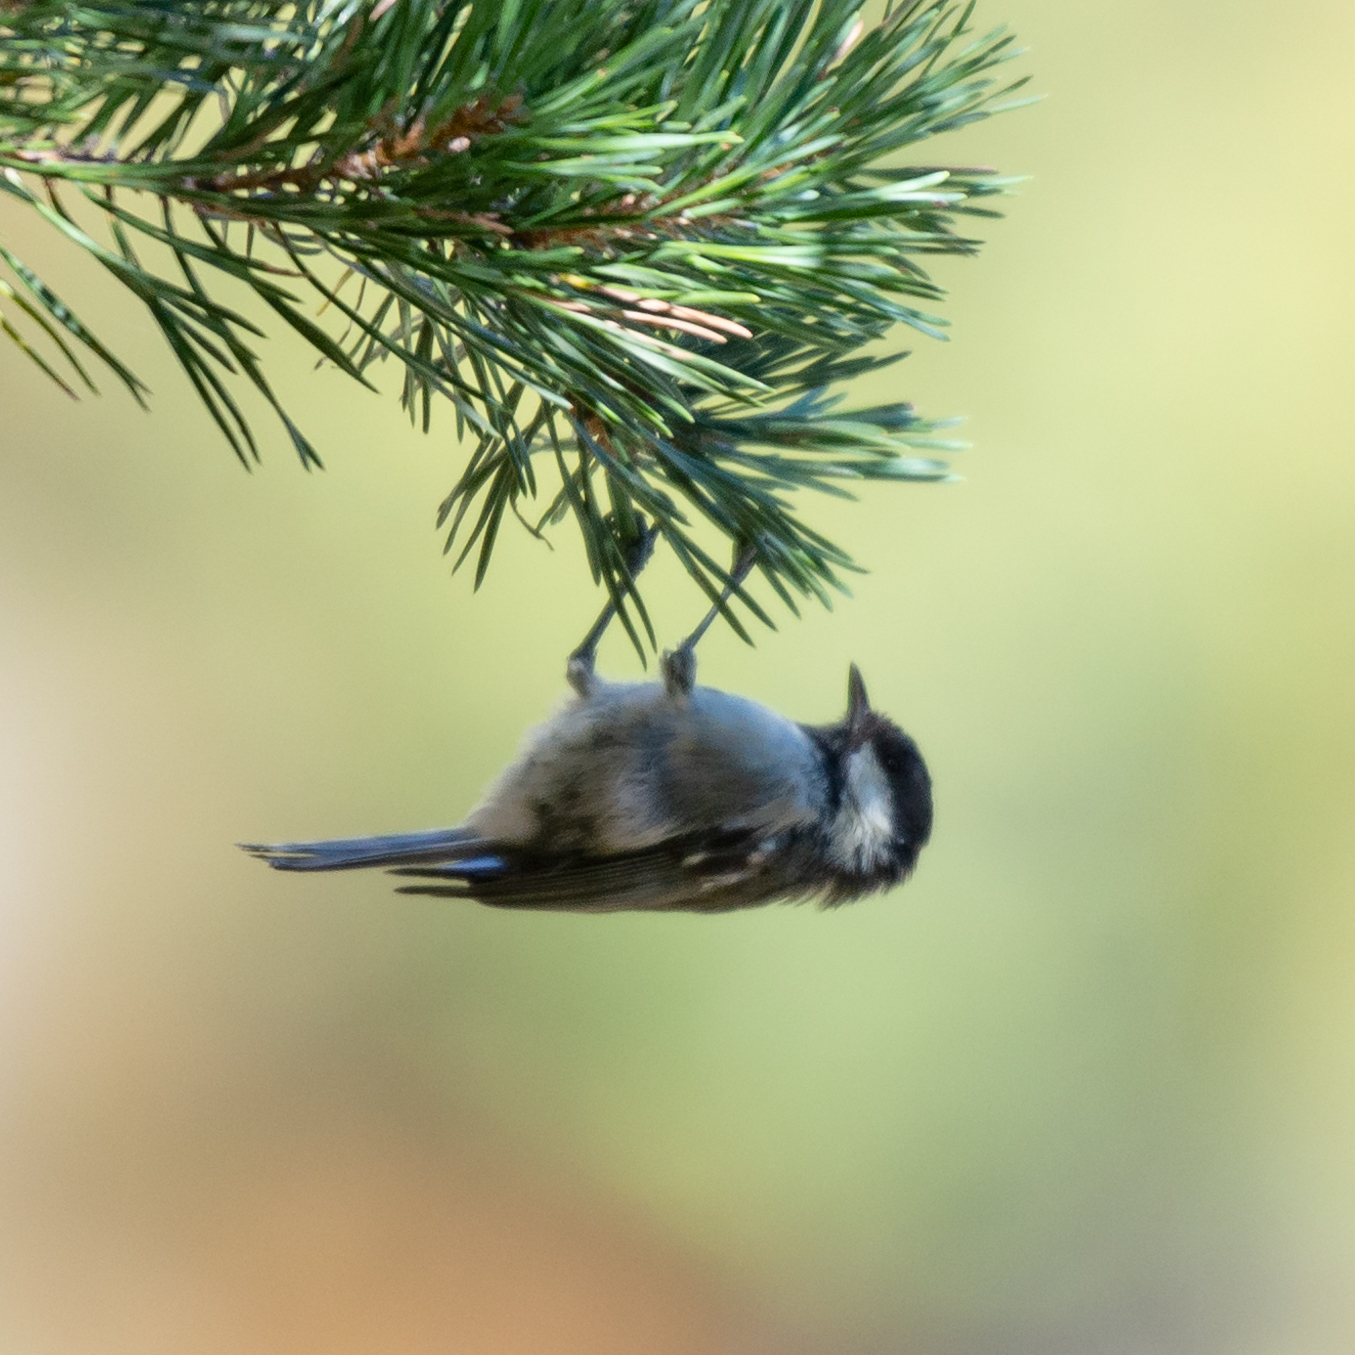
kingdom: Animalia
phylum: Chordata
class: Aves
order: Passeriformes
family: Paridae
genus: Periparus
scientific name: Periparus ater
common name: Coal tit
